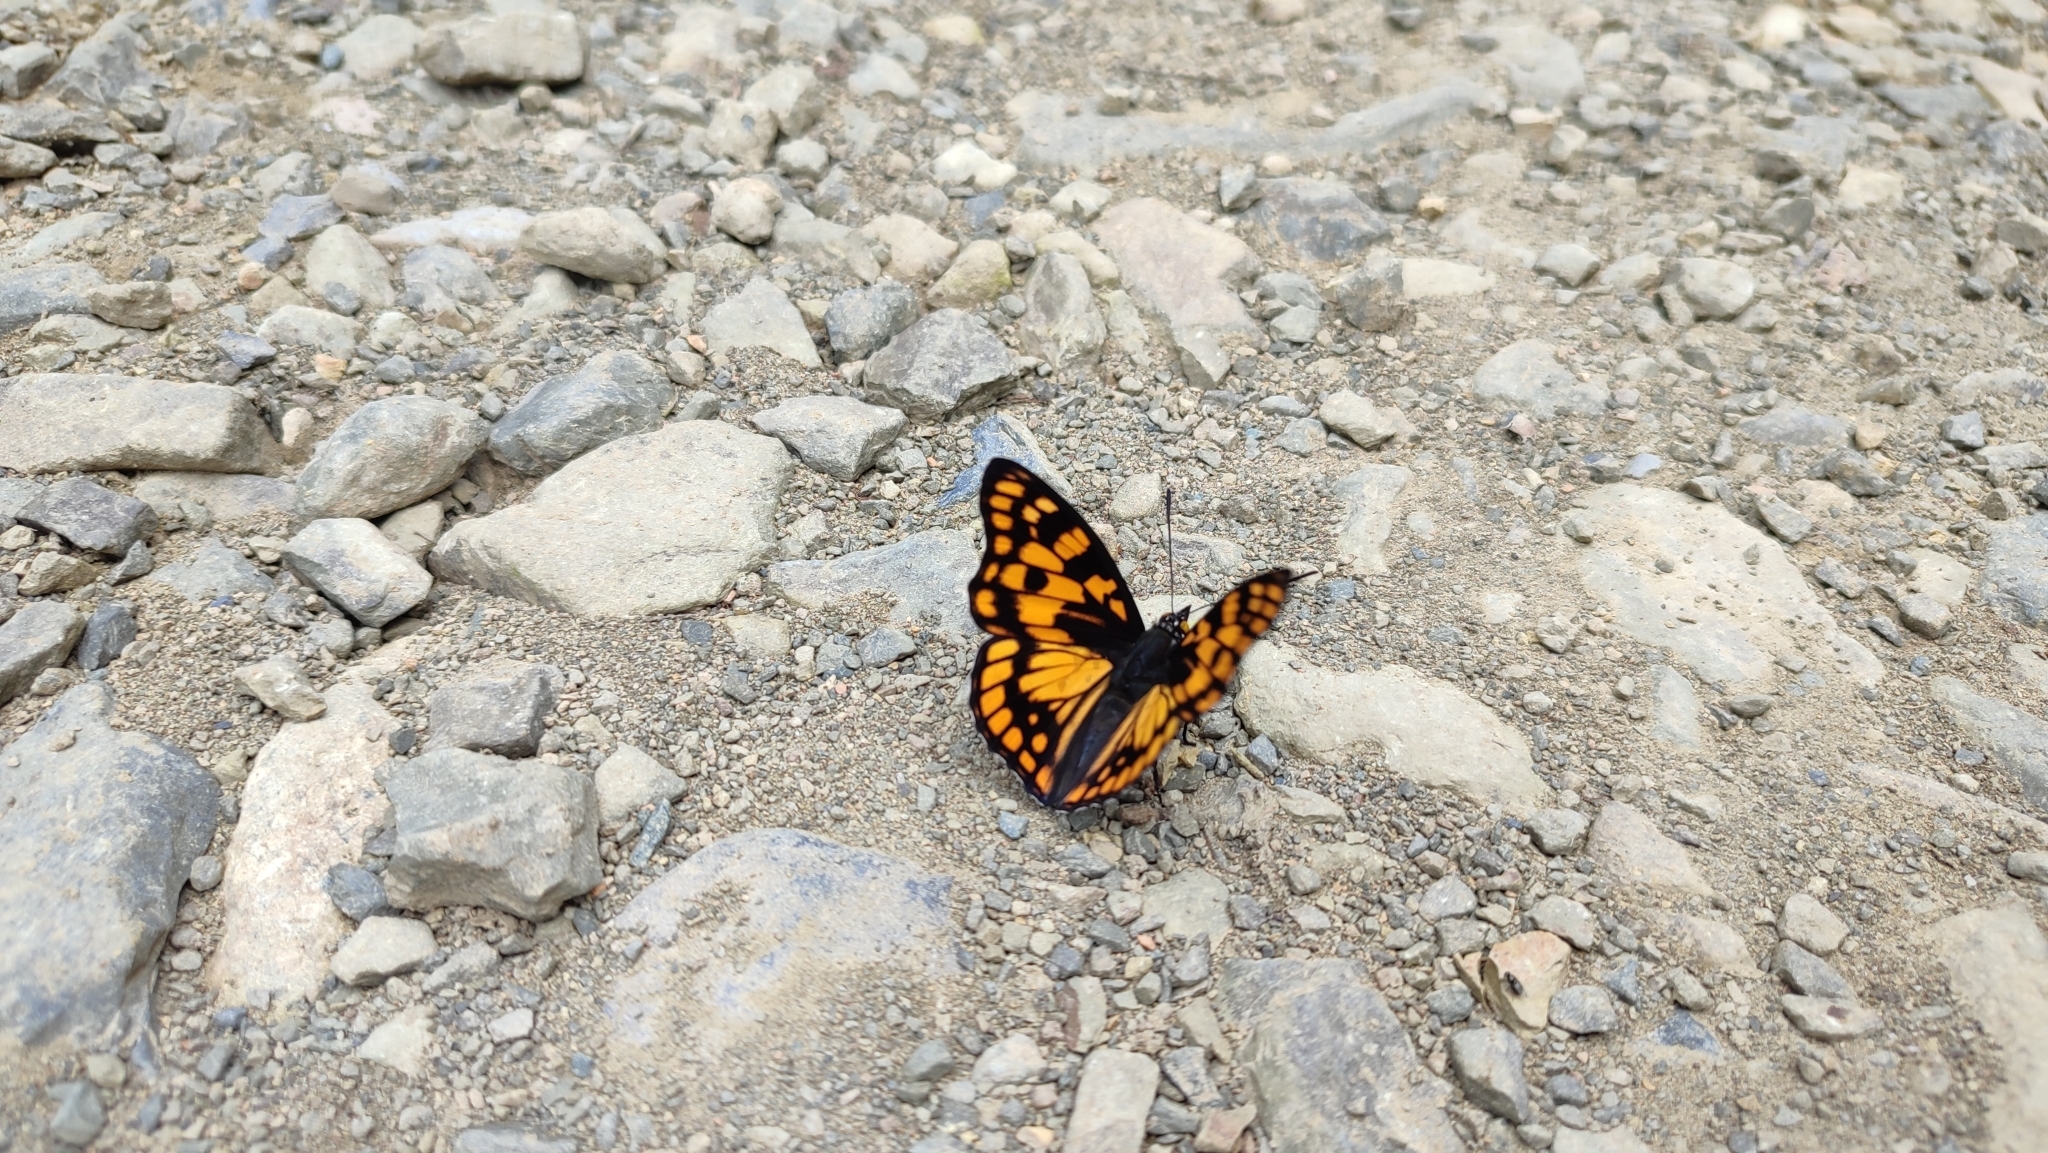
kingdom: Animalia
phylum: Arthropoda
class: Insecta
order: Lepidoptera
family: Nymphalidae
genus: Sephisa
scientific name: Sephisa dichroa
